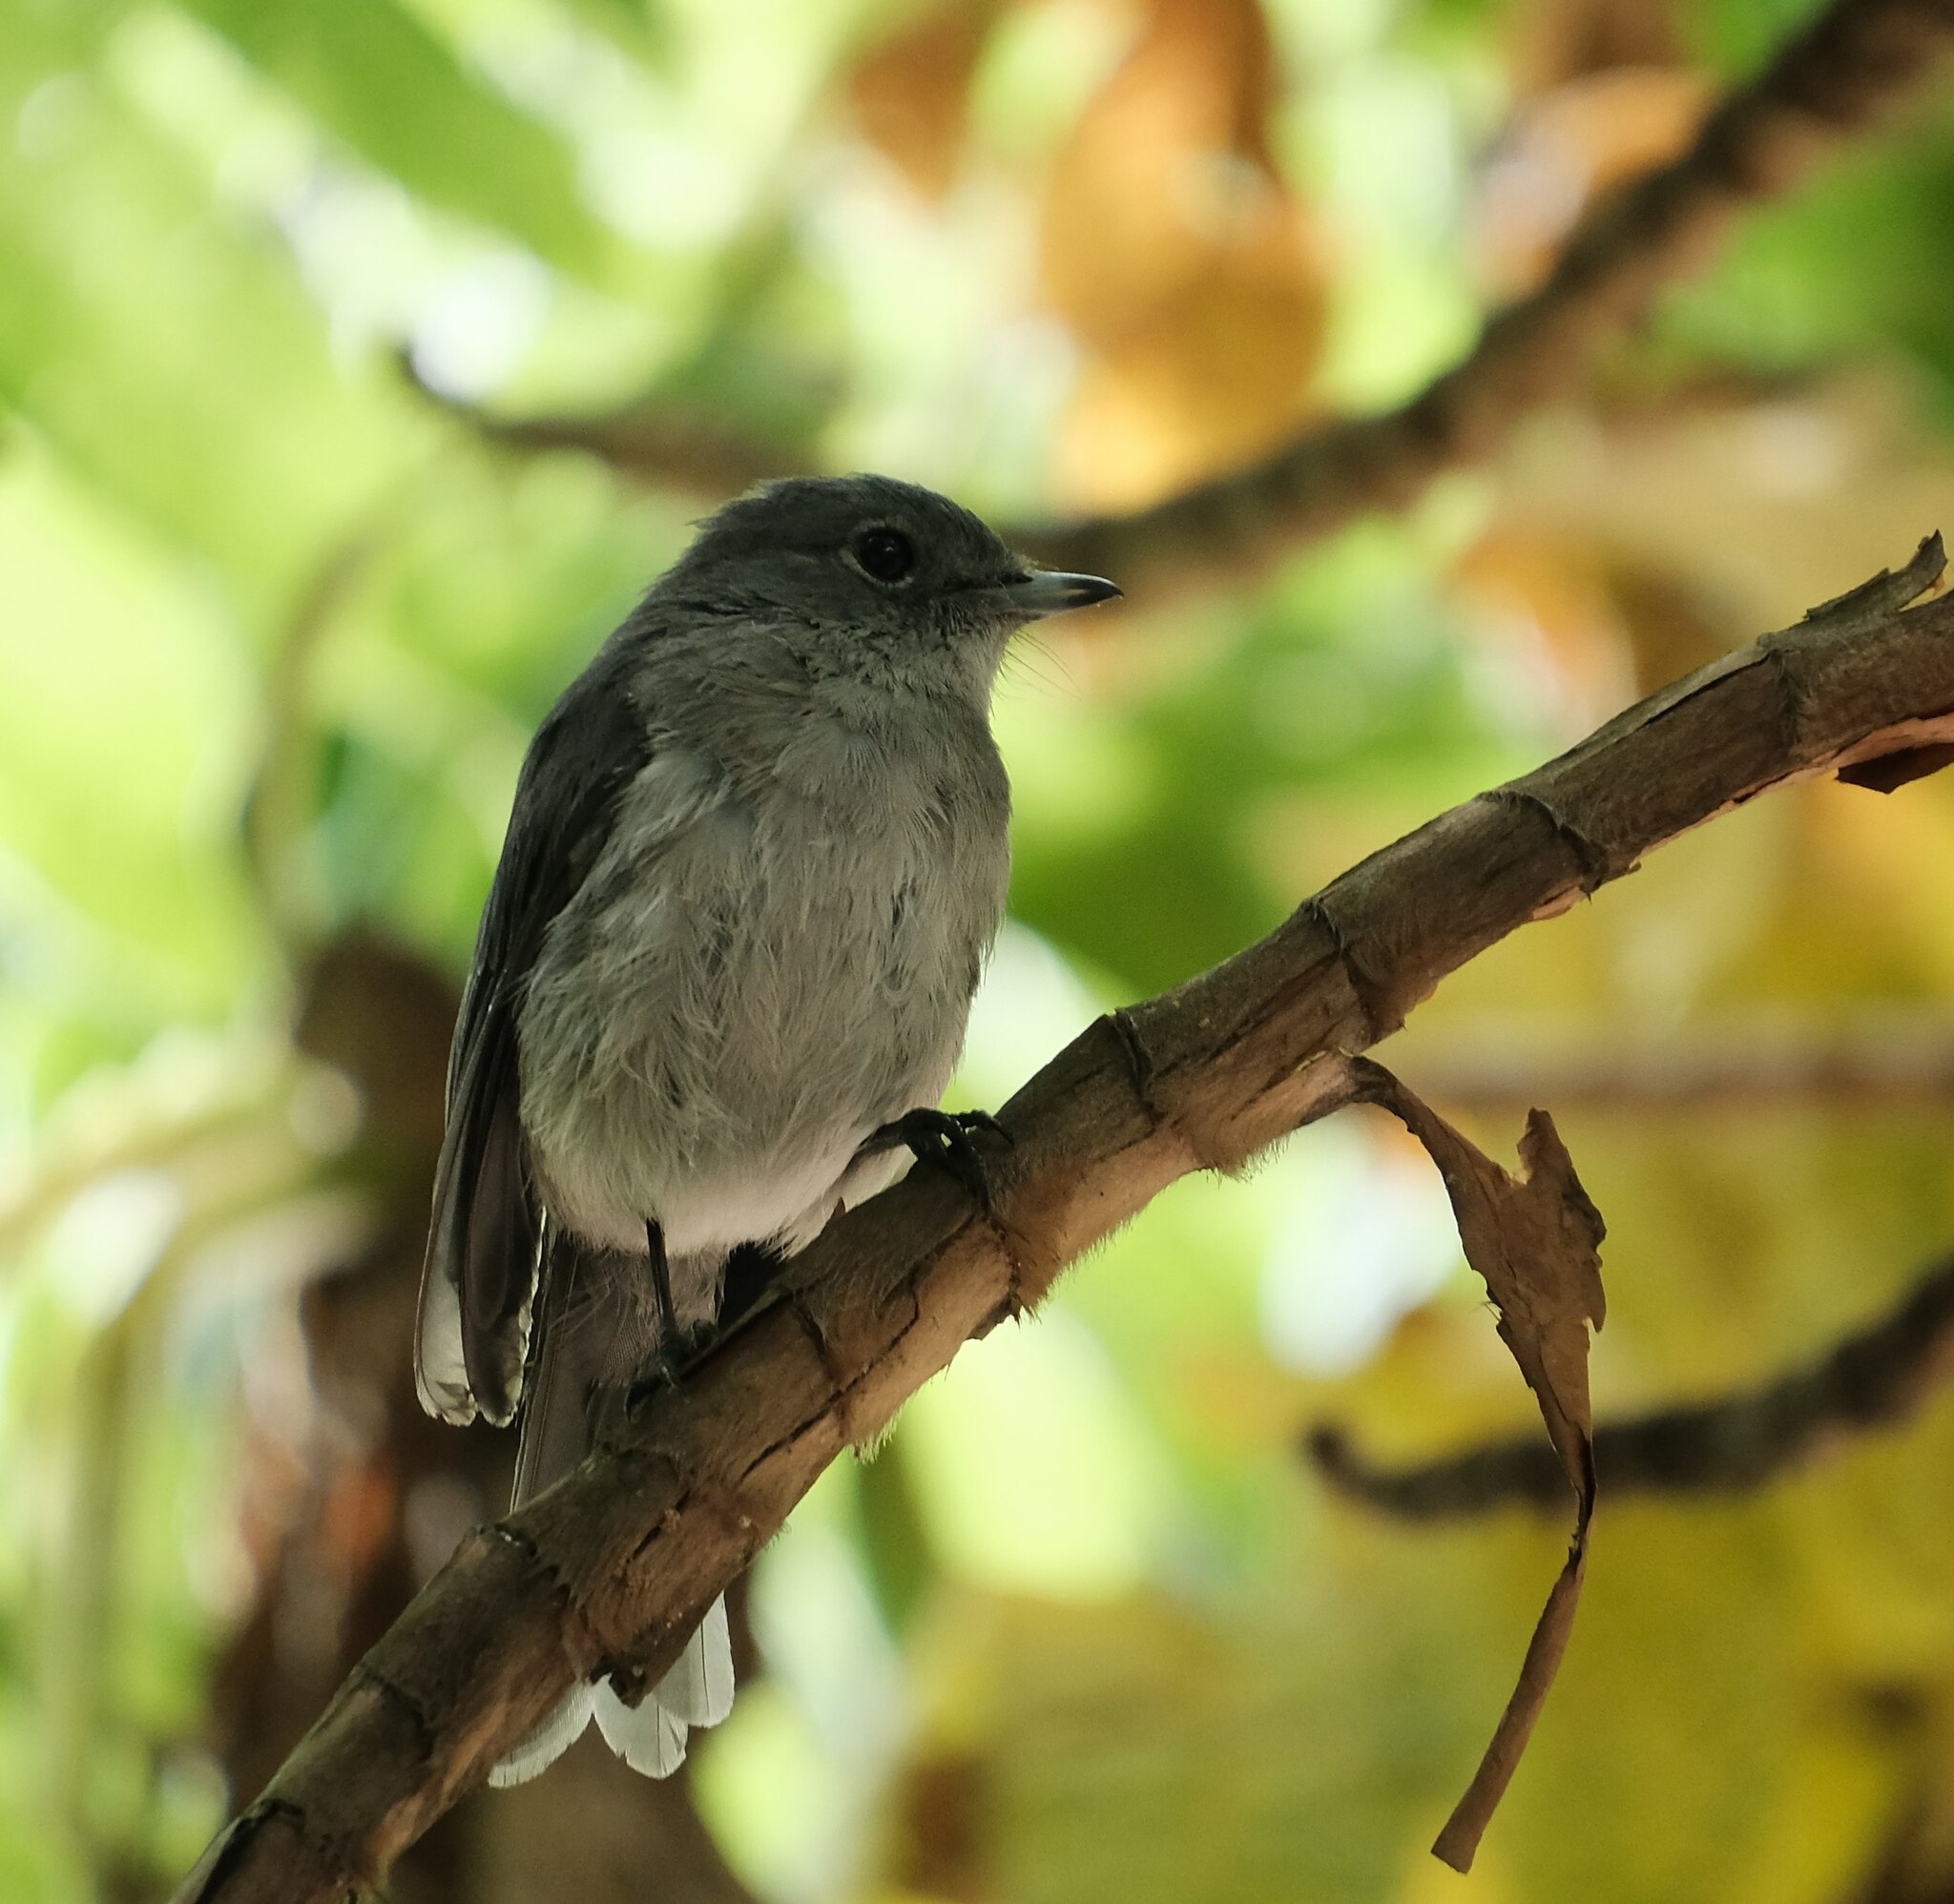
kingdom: Animalia
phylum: Chordata
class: Aves
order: Passeriformes
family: Muscicapidae
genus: Dioptrornis
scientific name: Dioptrornis fischeri
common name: White-eyed slaty flycatcher
